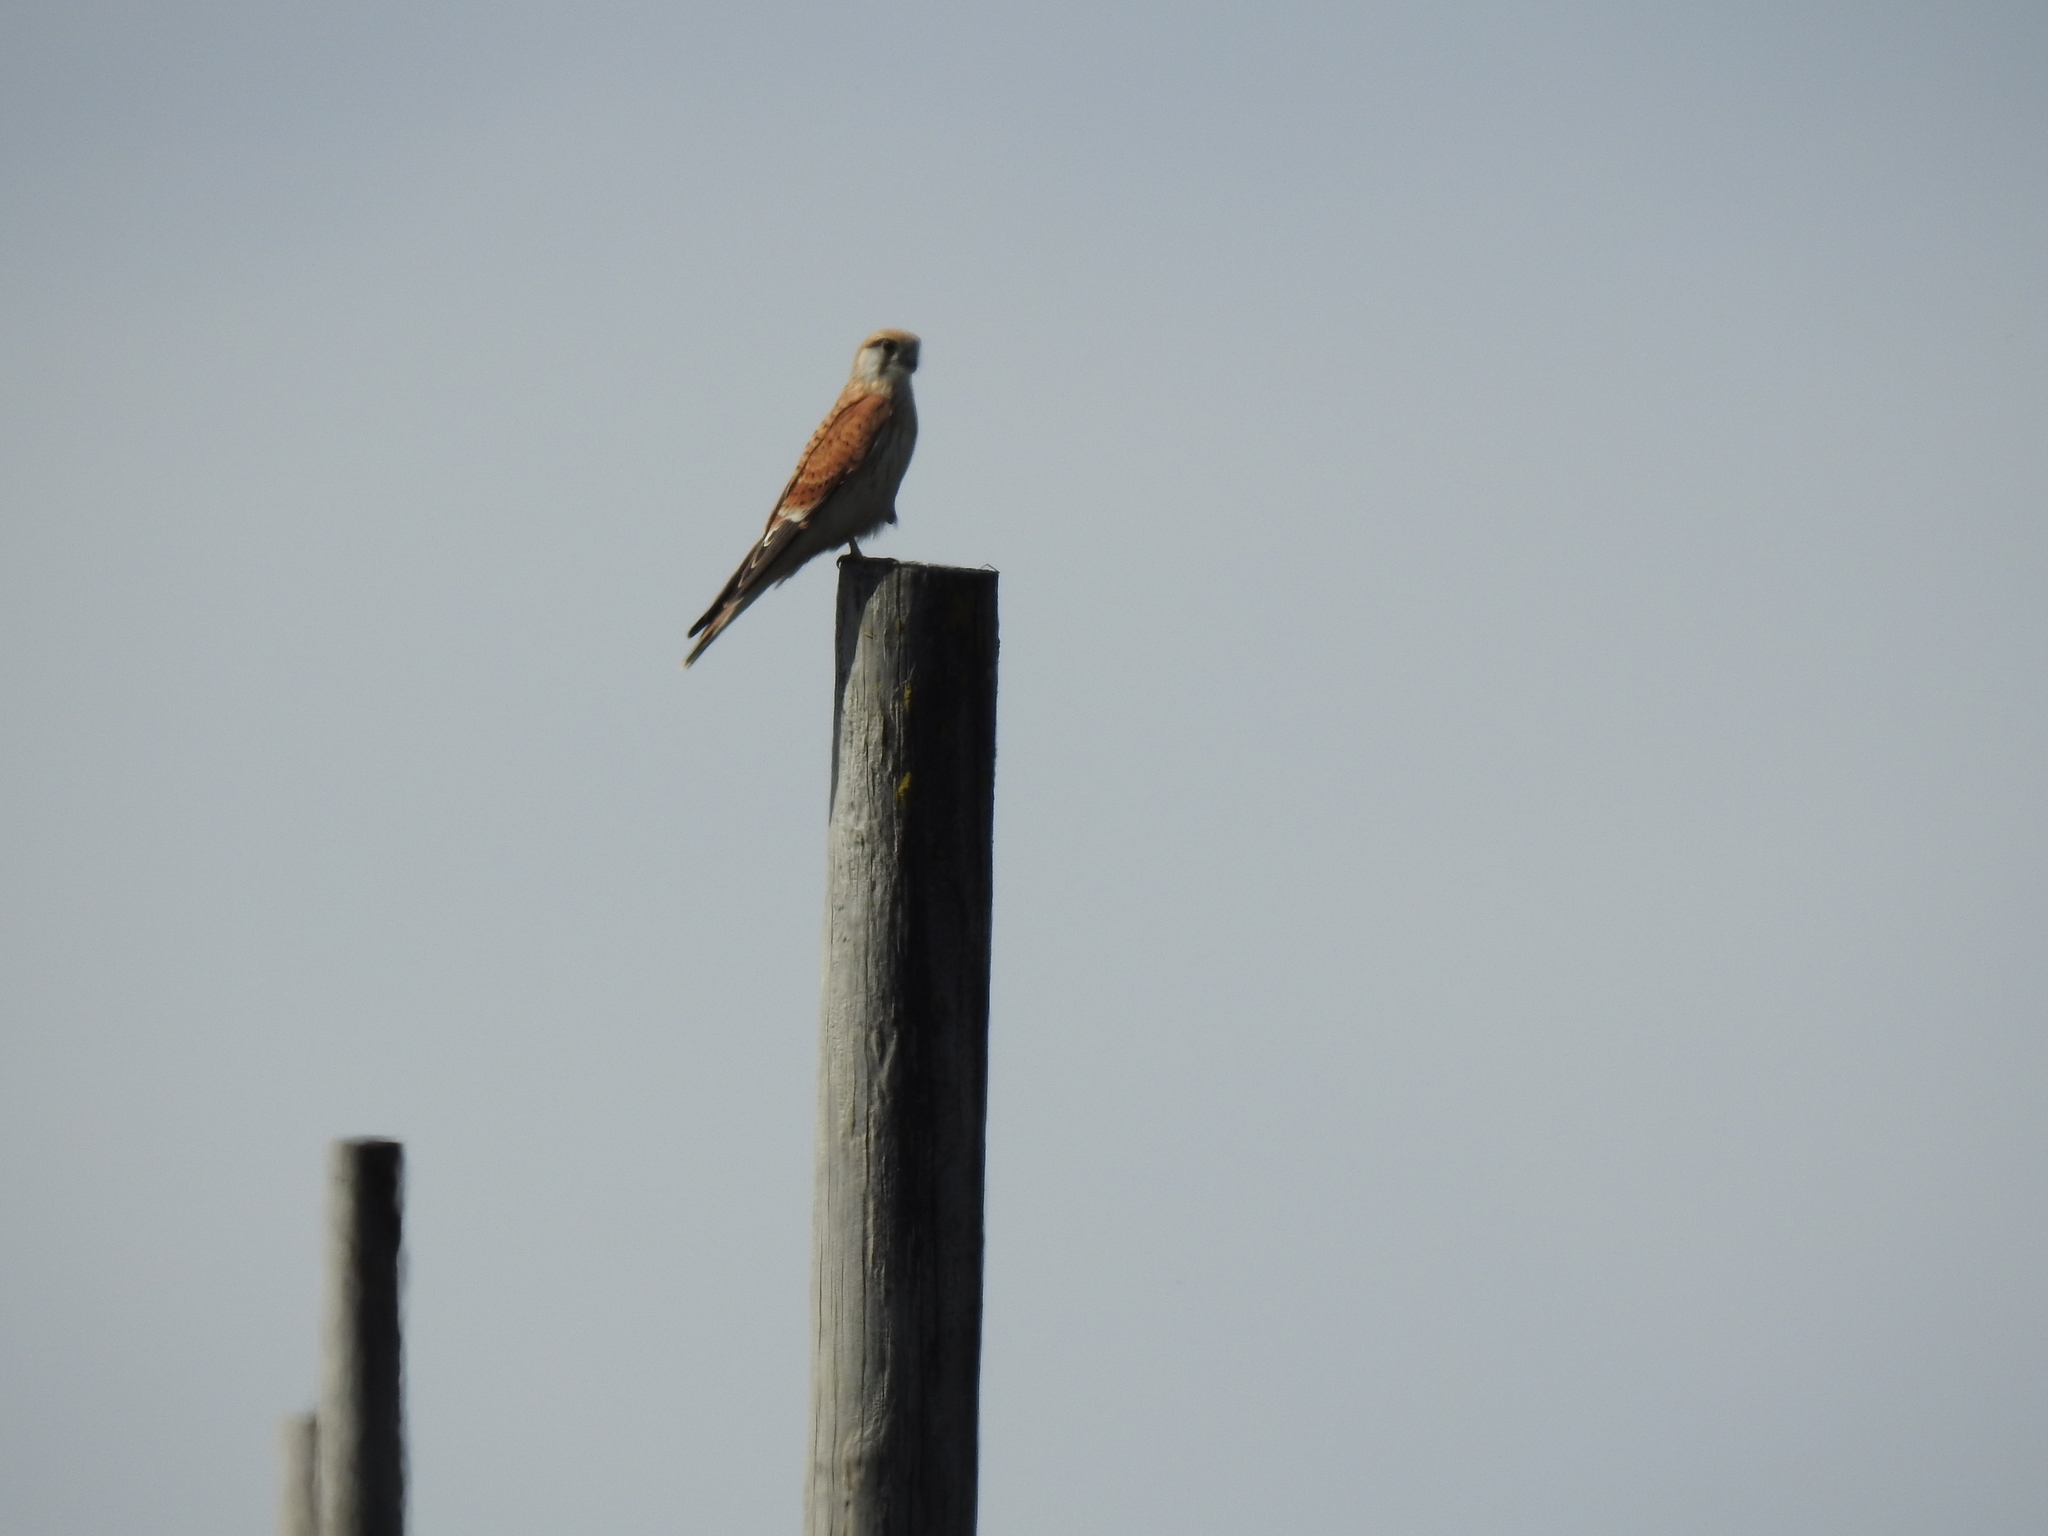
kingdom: Animalia
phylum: Chordata
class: Aves
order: Falconiformes
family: Falconidae
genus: Falco
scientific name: Falco cenchroides
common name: Nankeen kestrel
